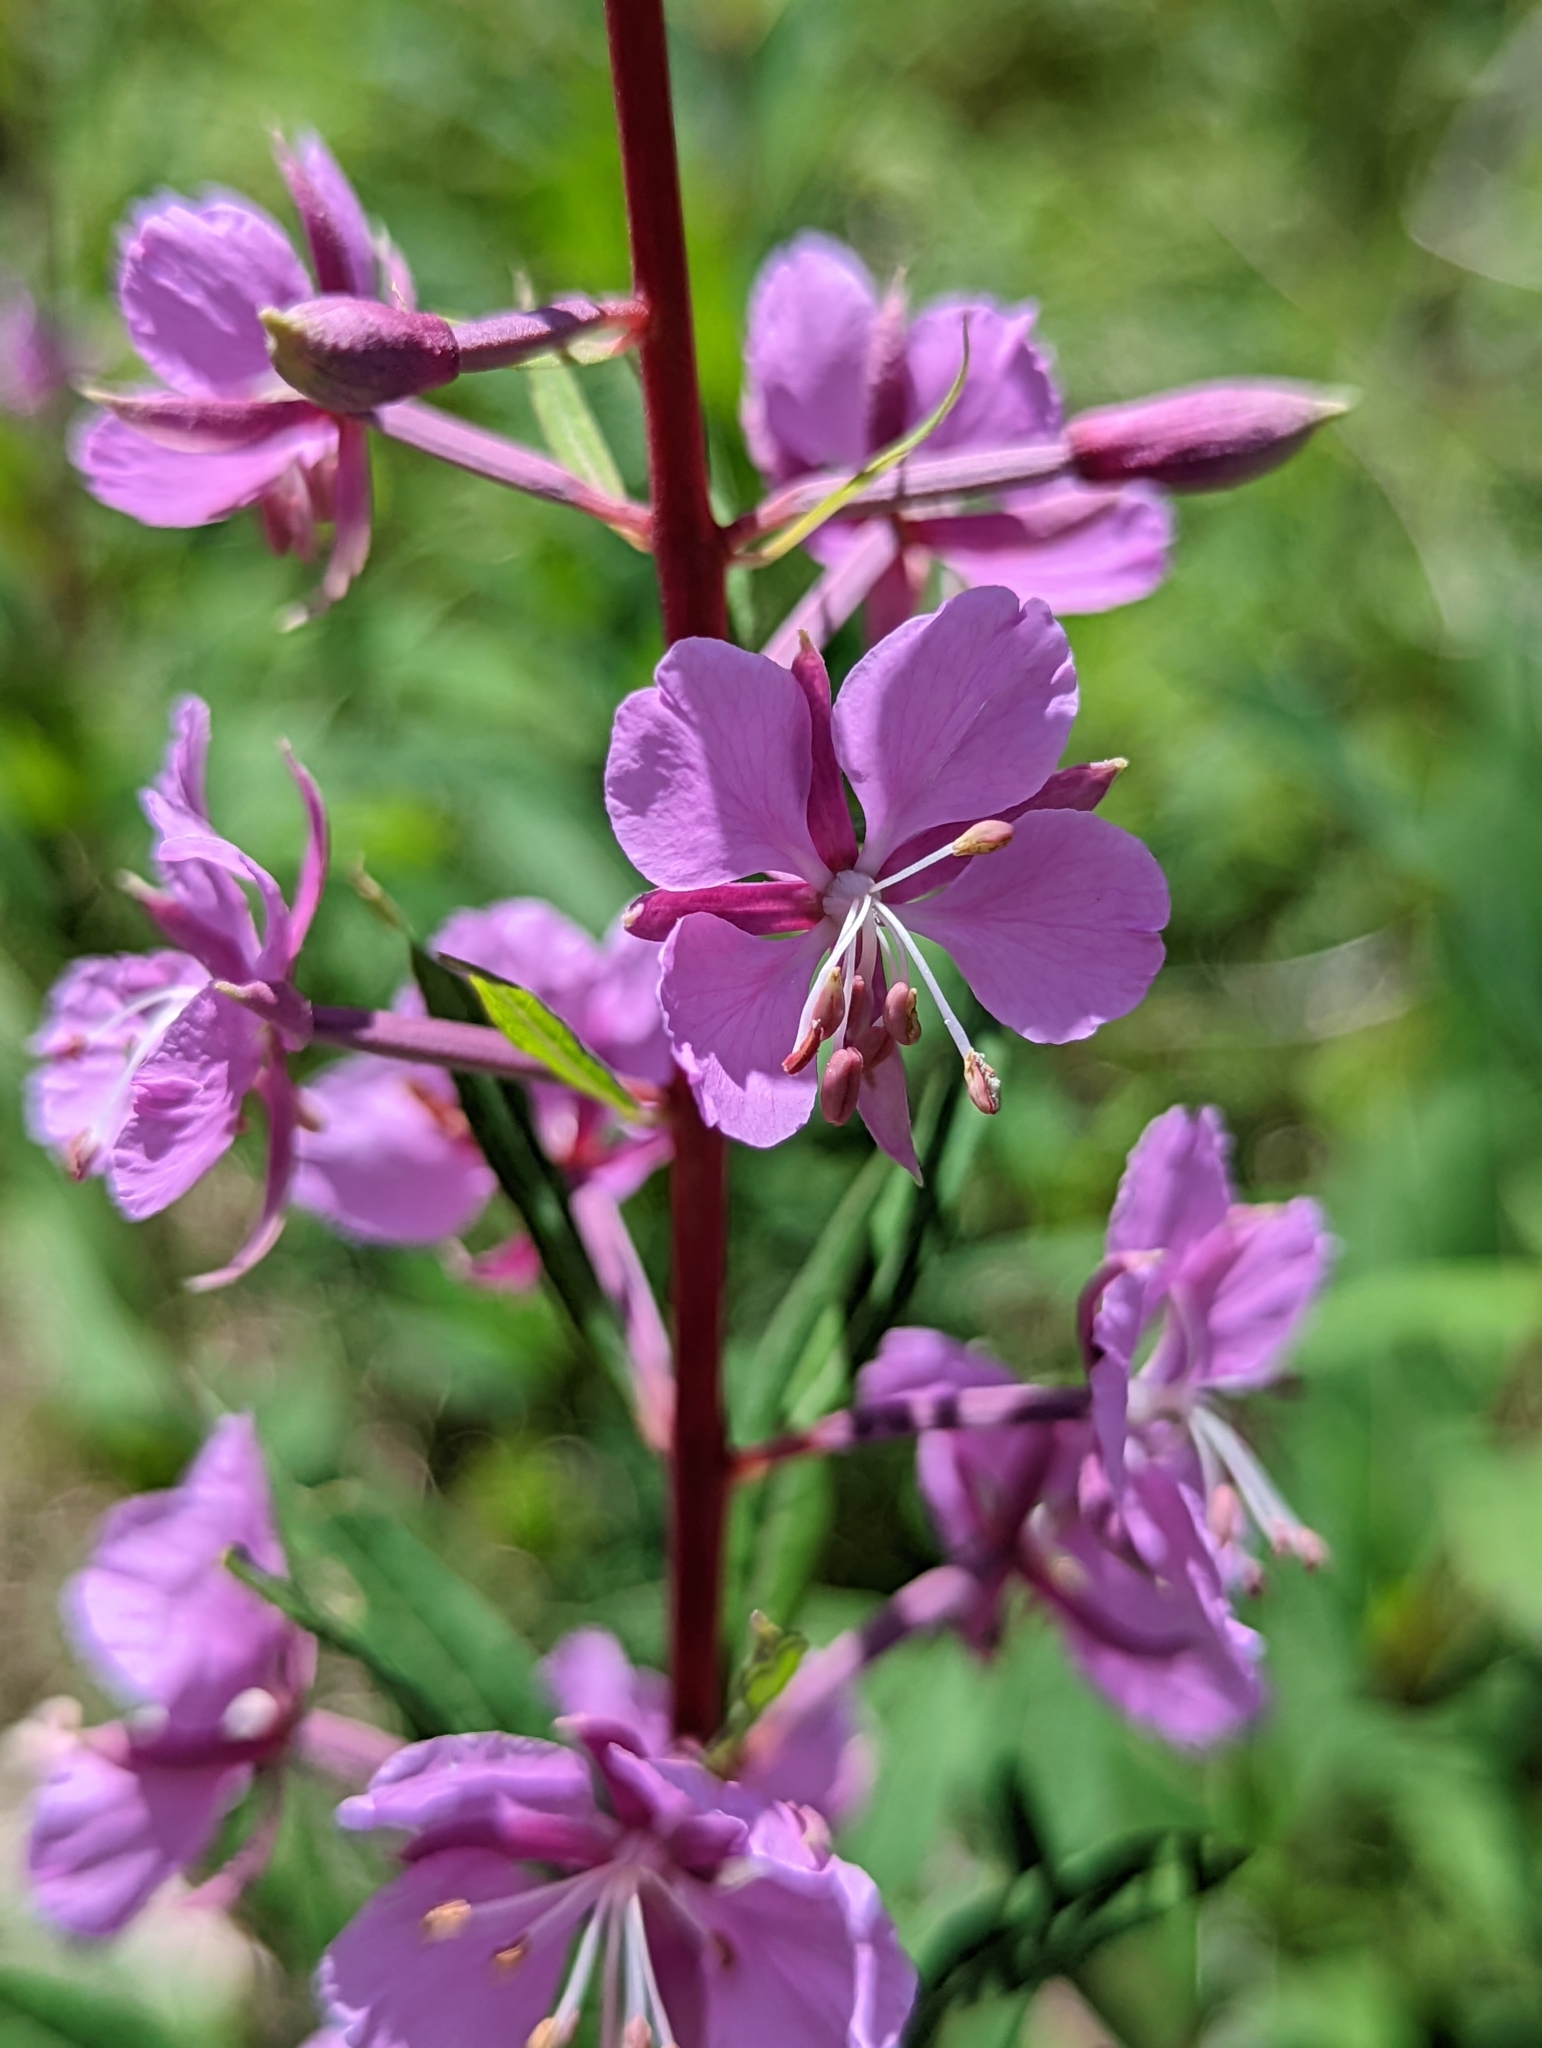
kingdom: Plantae
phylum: Tracheophyta
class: Magnoliopsida
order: Myrtales
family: Onagraceae
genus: Chamaenerion
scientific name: Chamaenerion angustifolium
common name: Fireweed
